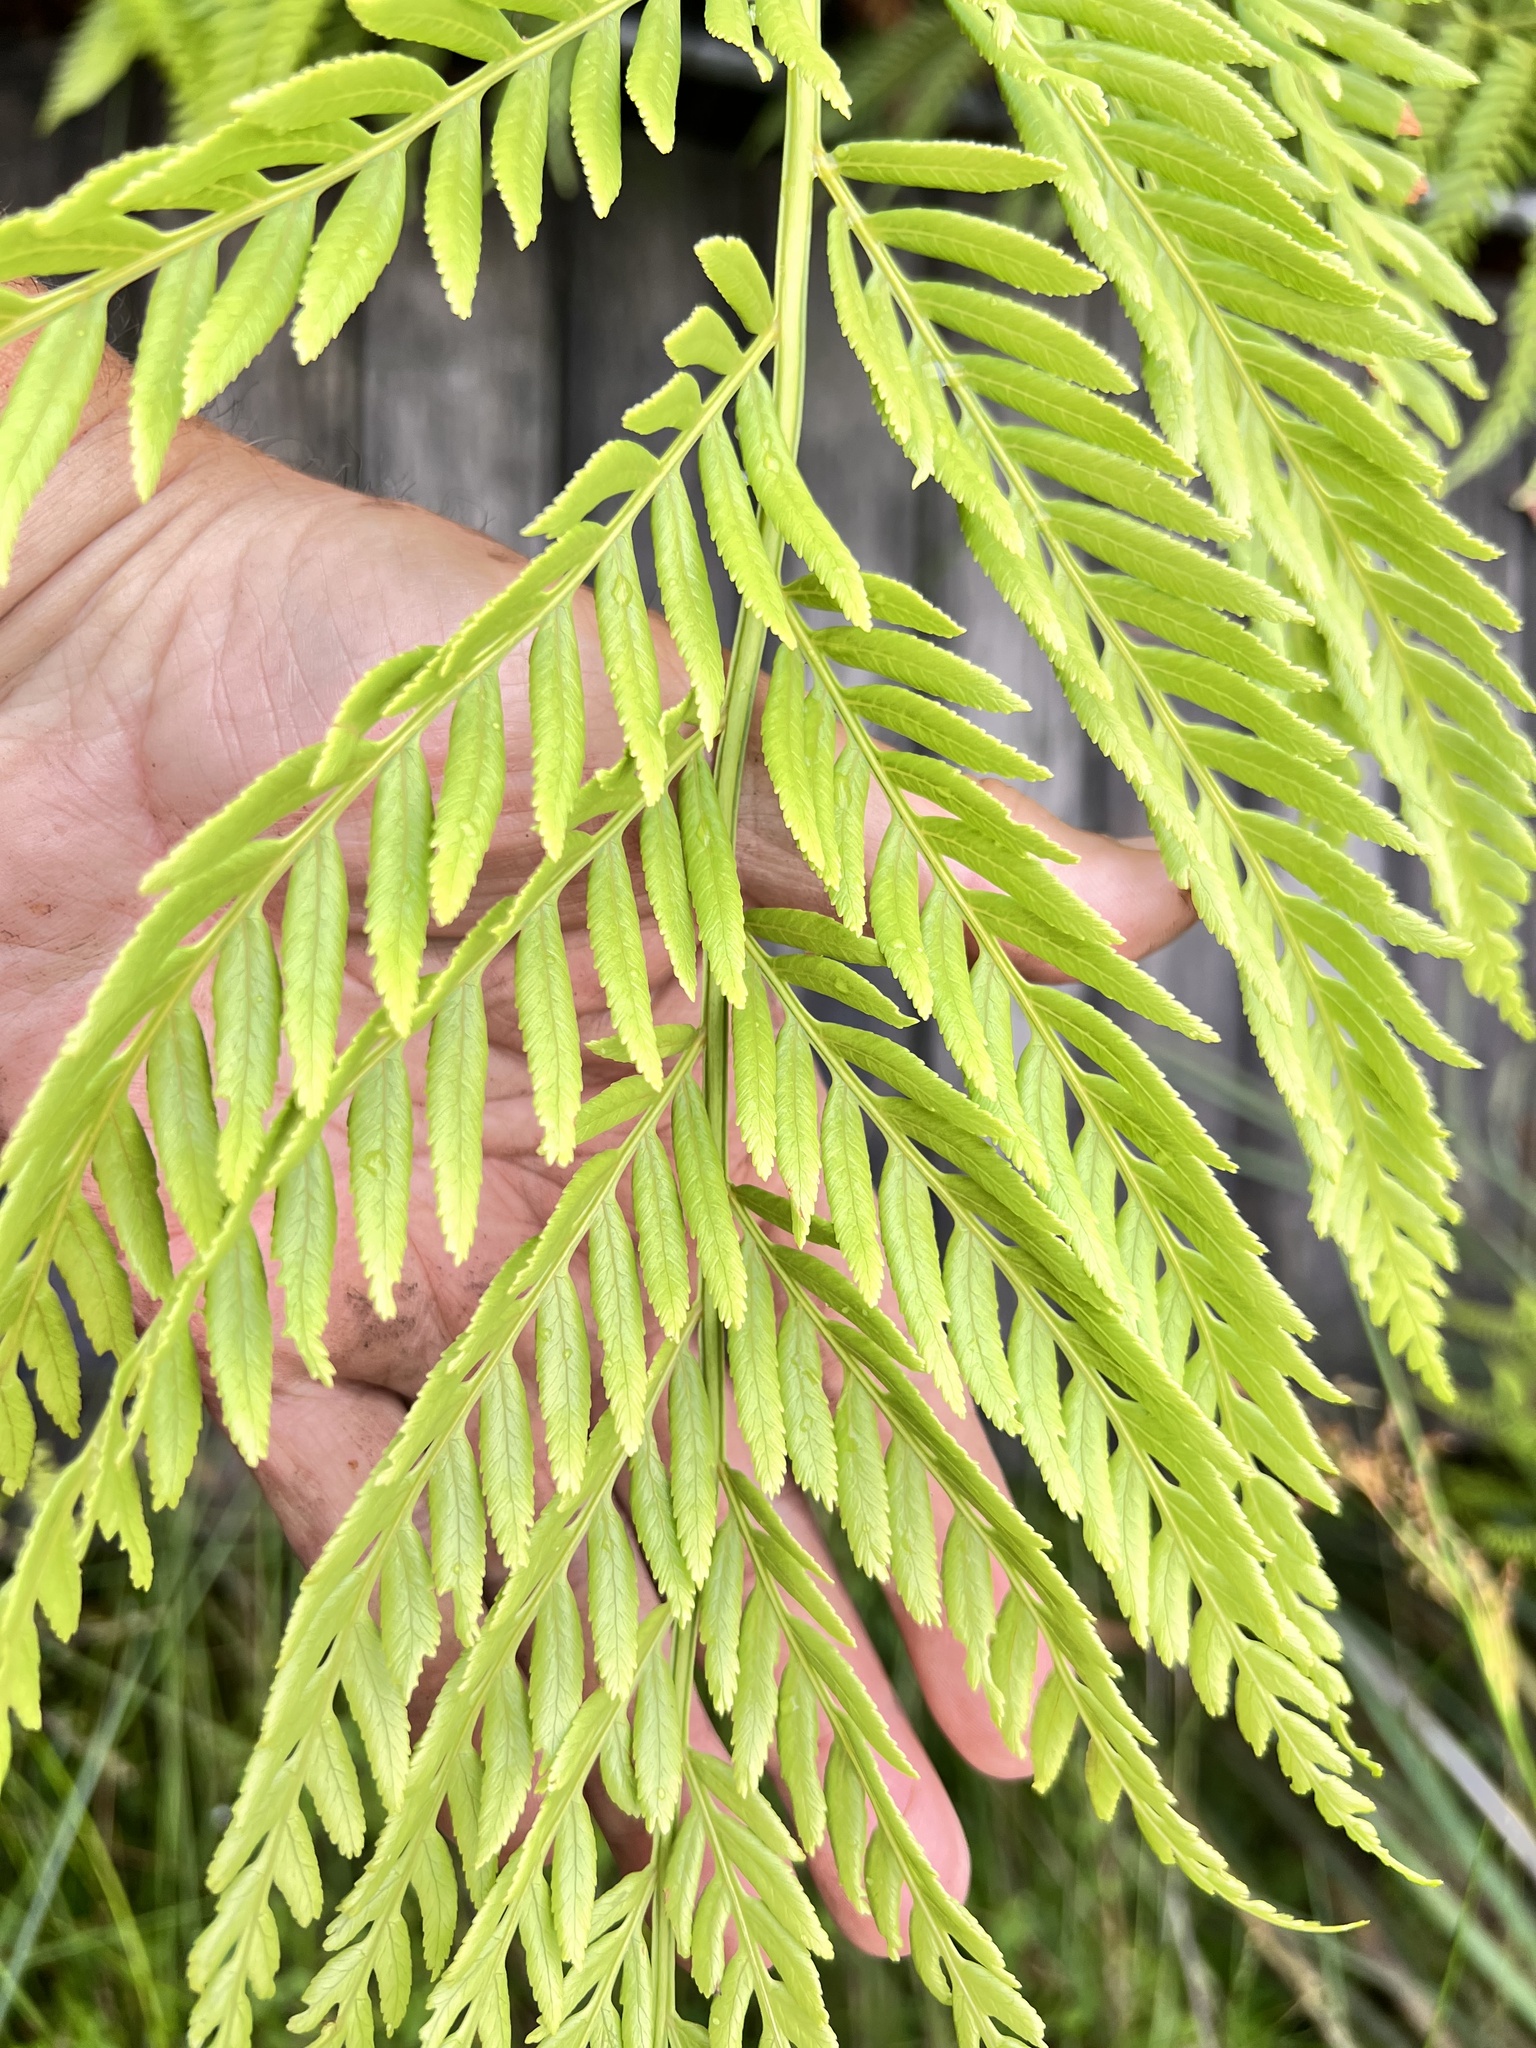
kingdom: Plantae
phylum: Tracheophyta
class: Polypodiopsida
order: Osmundales
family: Osmundaceae
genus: Todea
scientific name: Todea barbara
